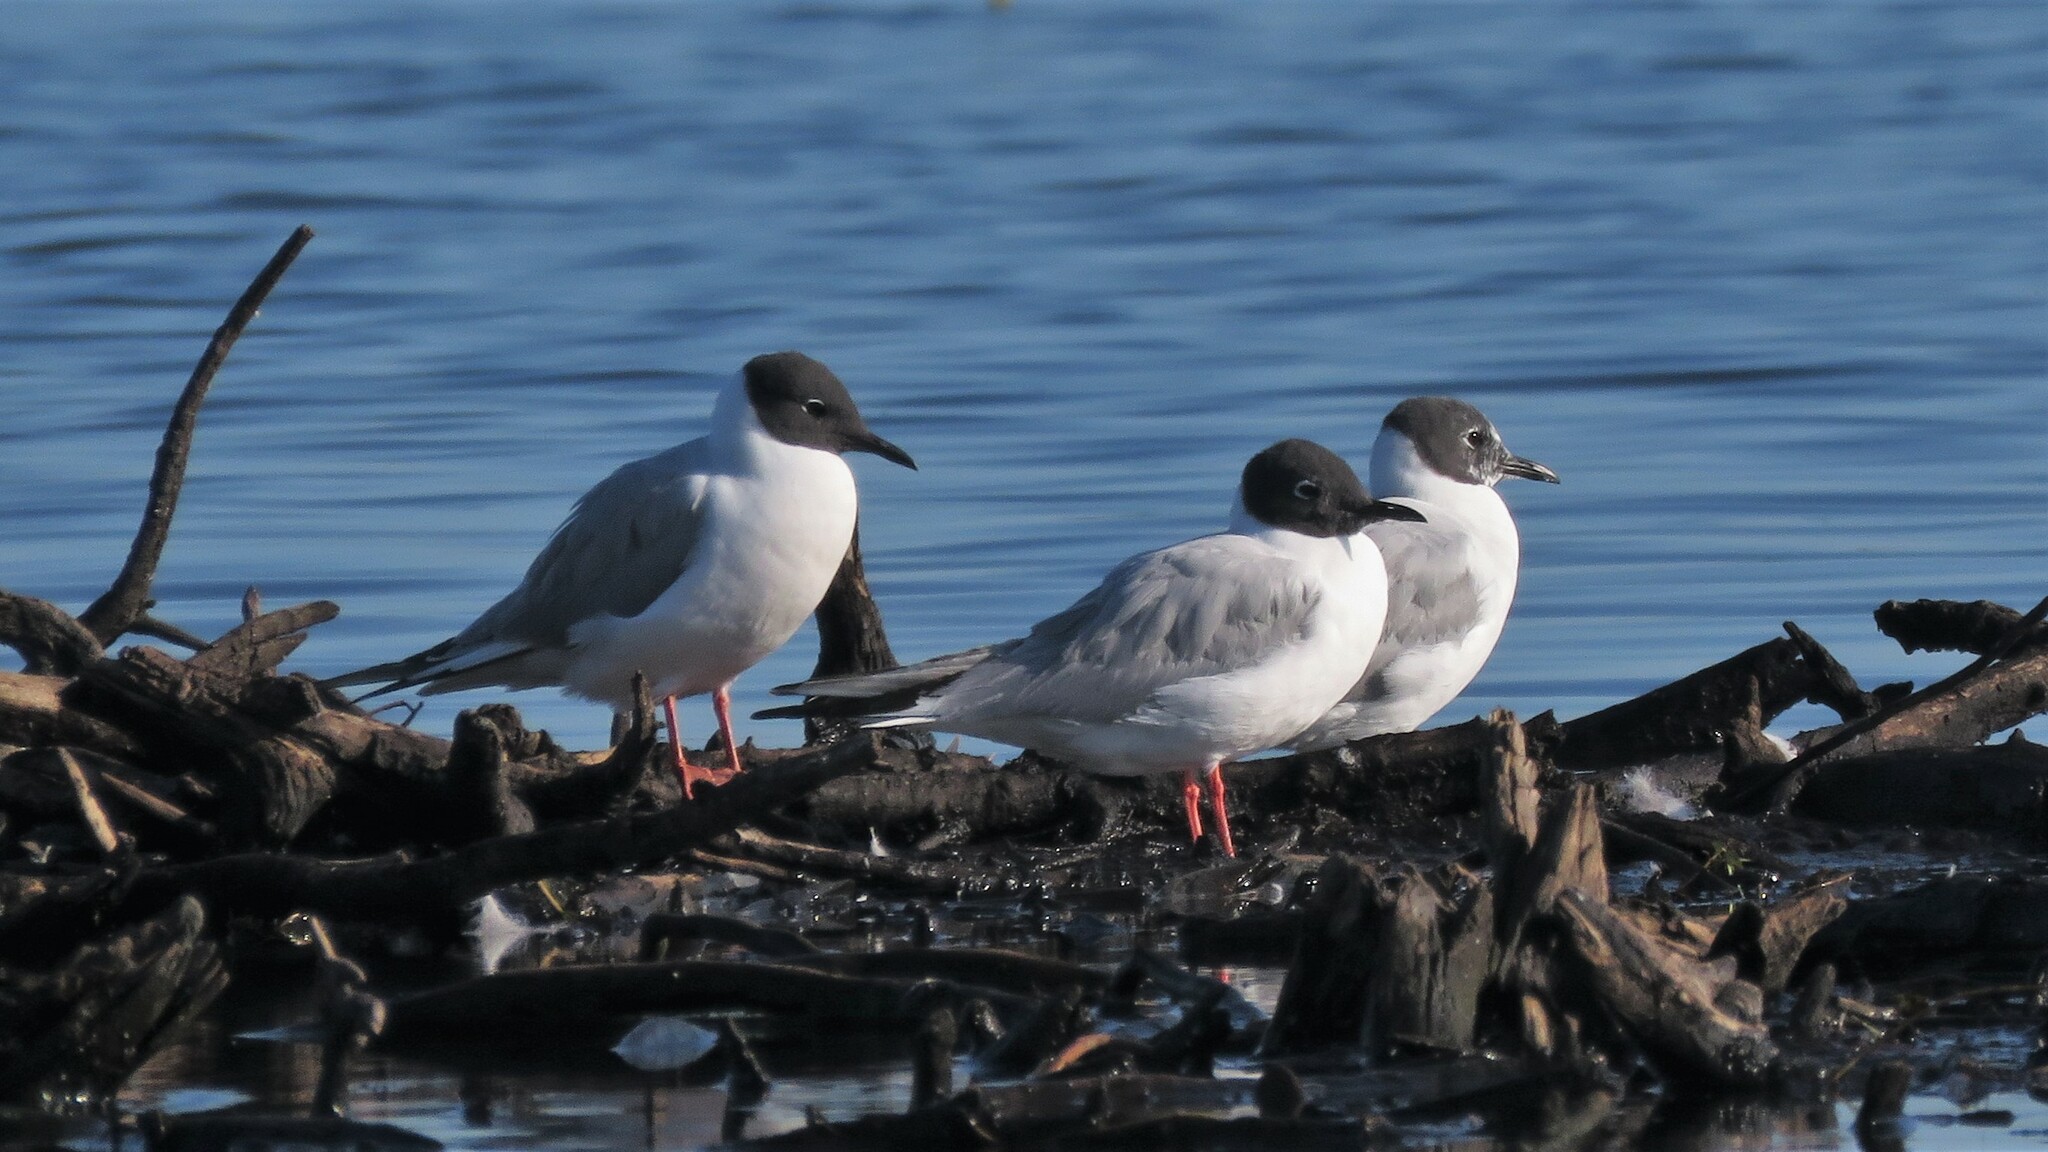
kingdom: Animalia
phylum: Chordata
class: Aves
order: Charadriiformes
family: Laridae
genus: Chroicocephalus
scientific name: Chroicocephalus philadelphia
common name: Bonaparte's gull
